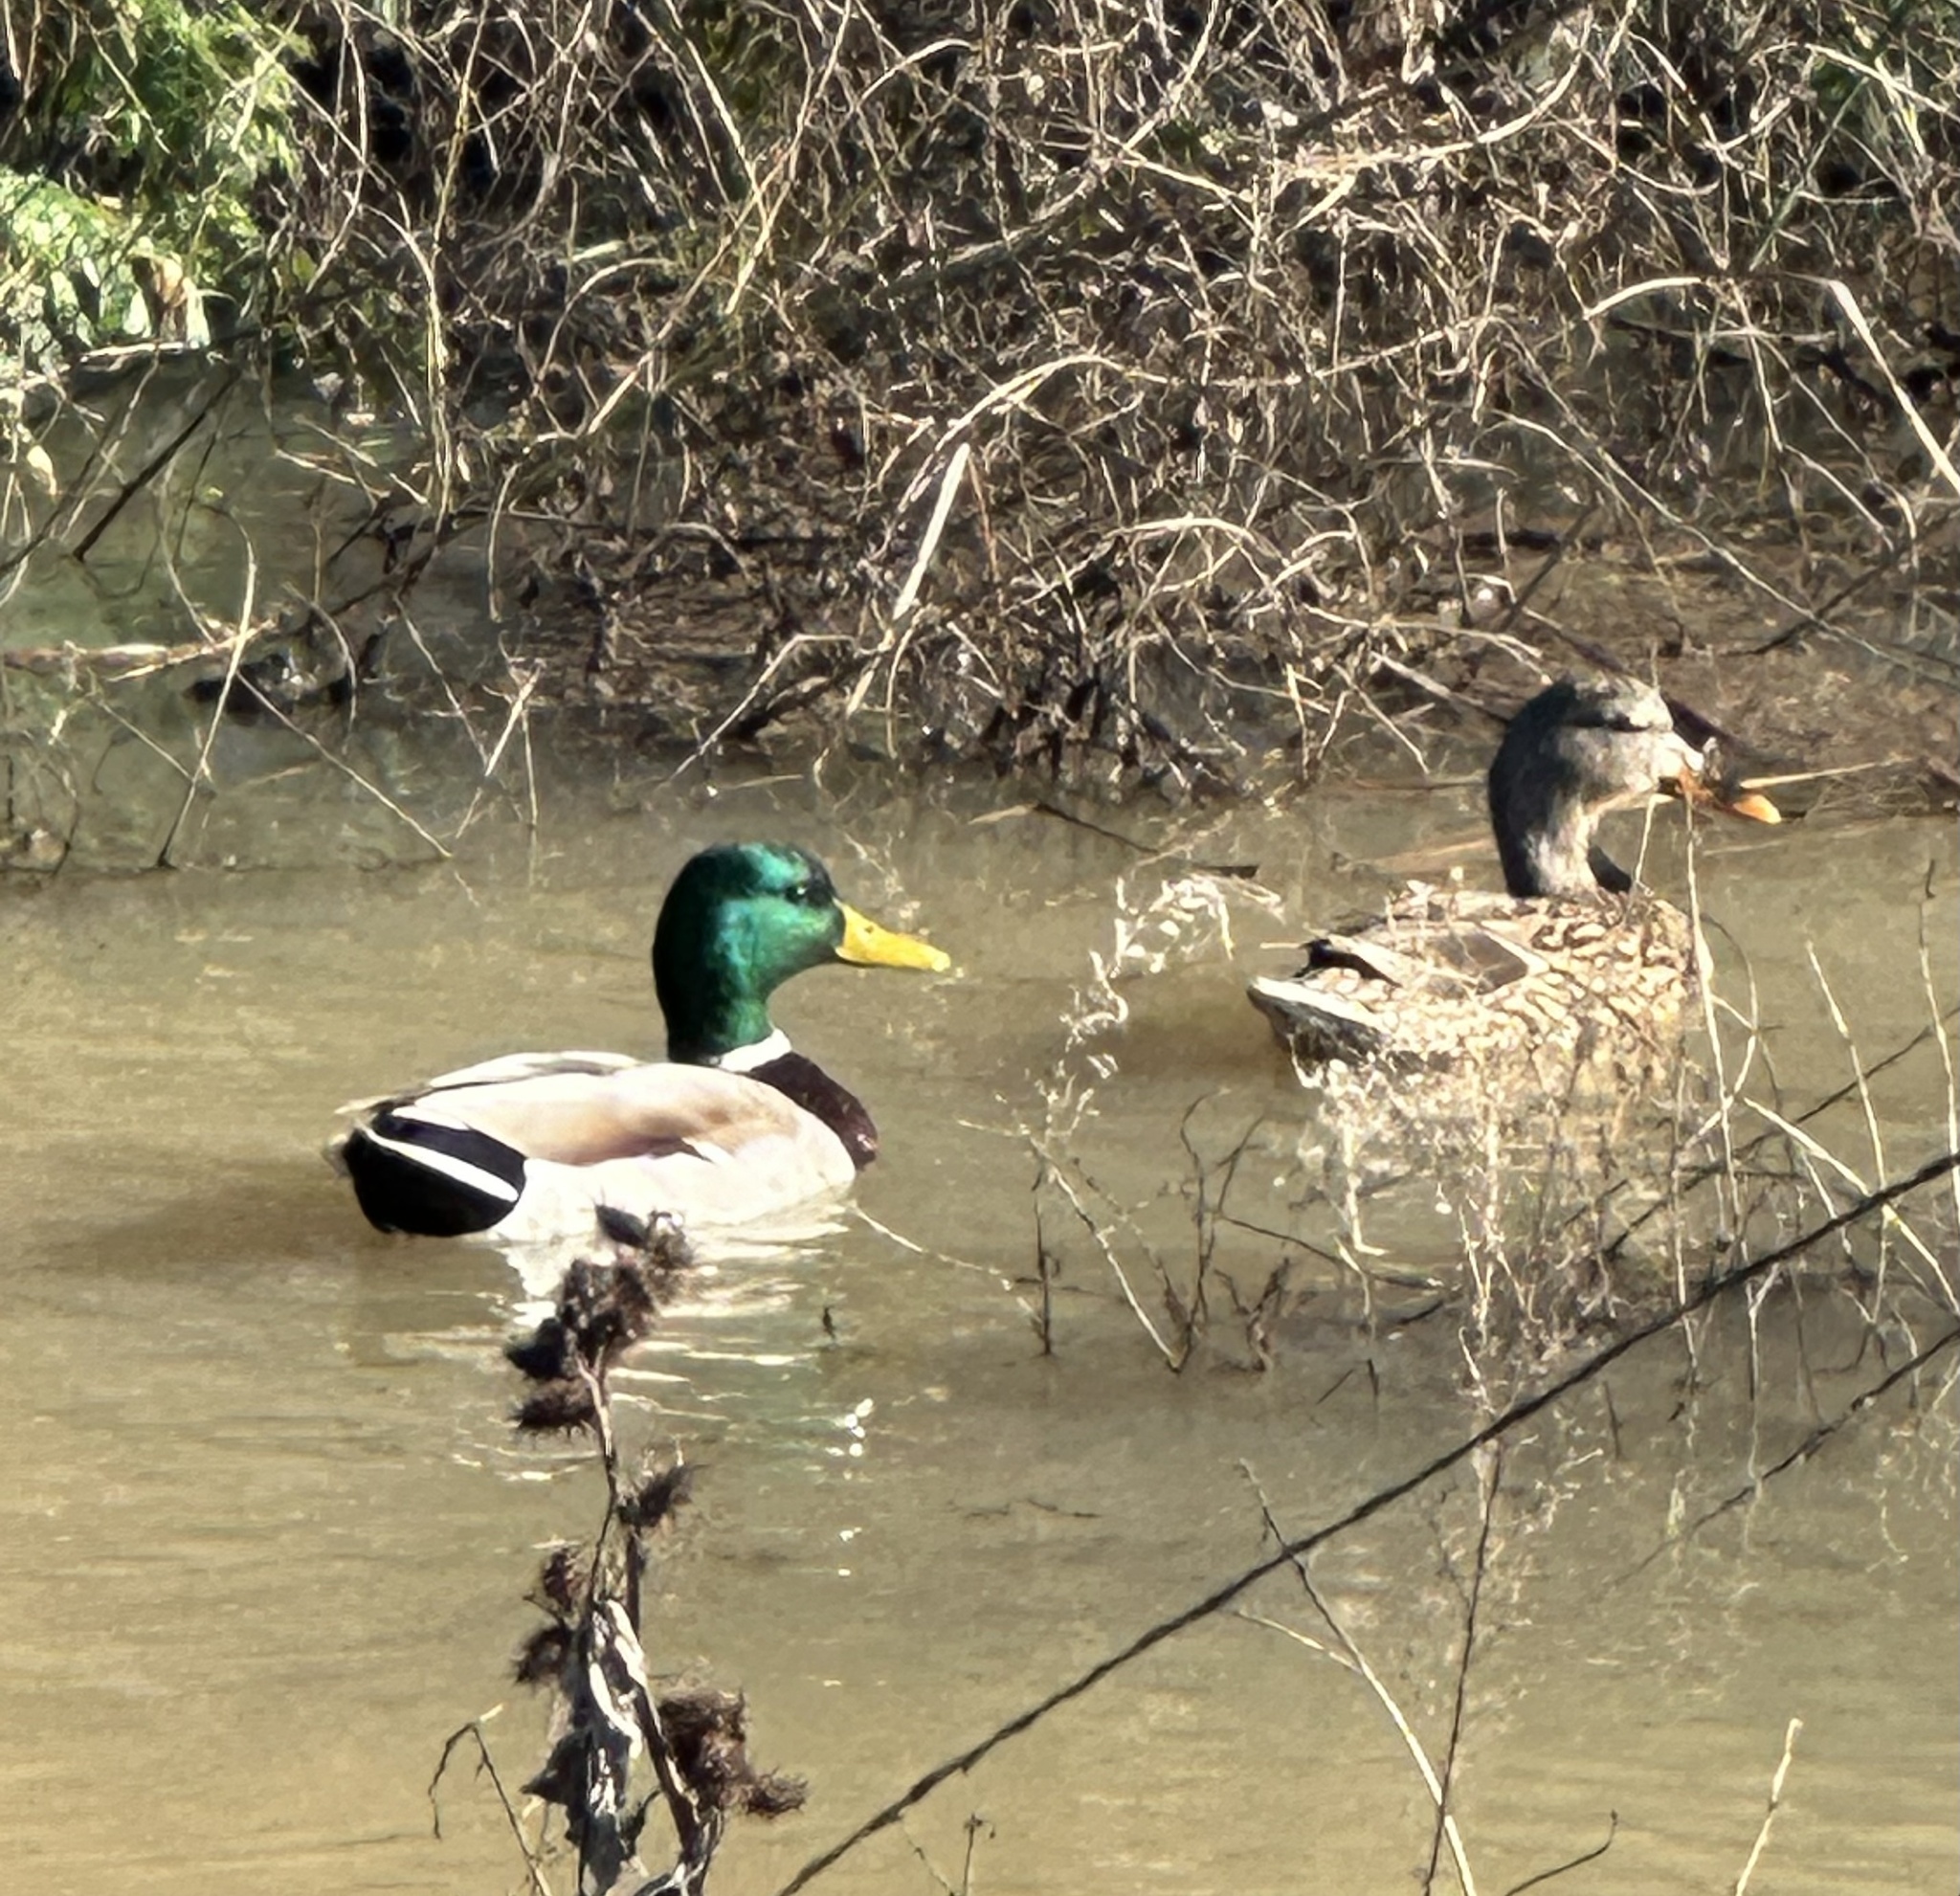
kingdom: Animalia
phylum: Chordata
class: Aves
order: Anseriformes
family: Anatidae
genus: Anas
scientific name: Anas platyrhynchos
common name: Mallard
